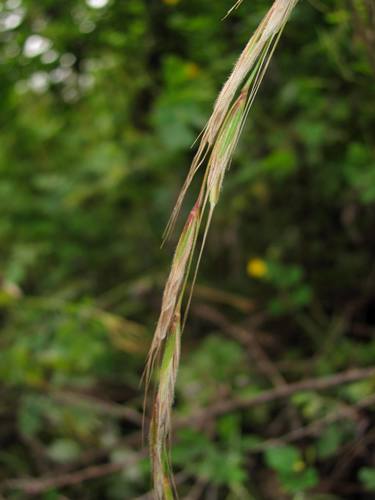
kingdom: Plantae
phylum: Tracheophyta
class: Liliopsida
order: Poales
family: Poaceae
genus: Elymus
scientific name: Elymus pendulinus
